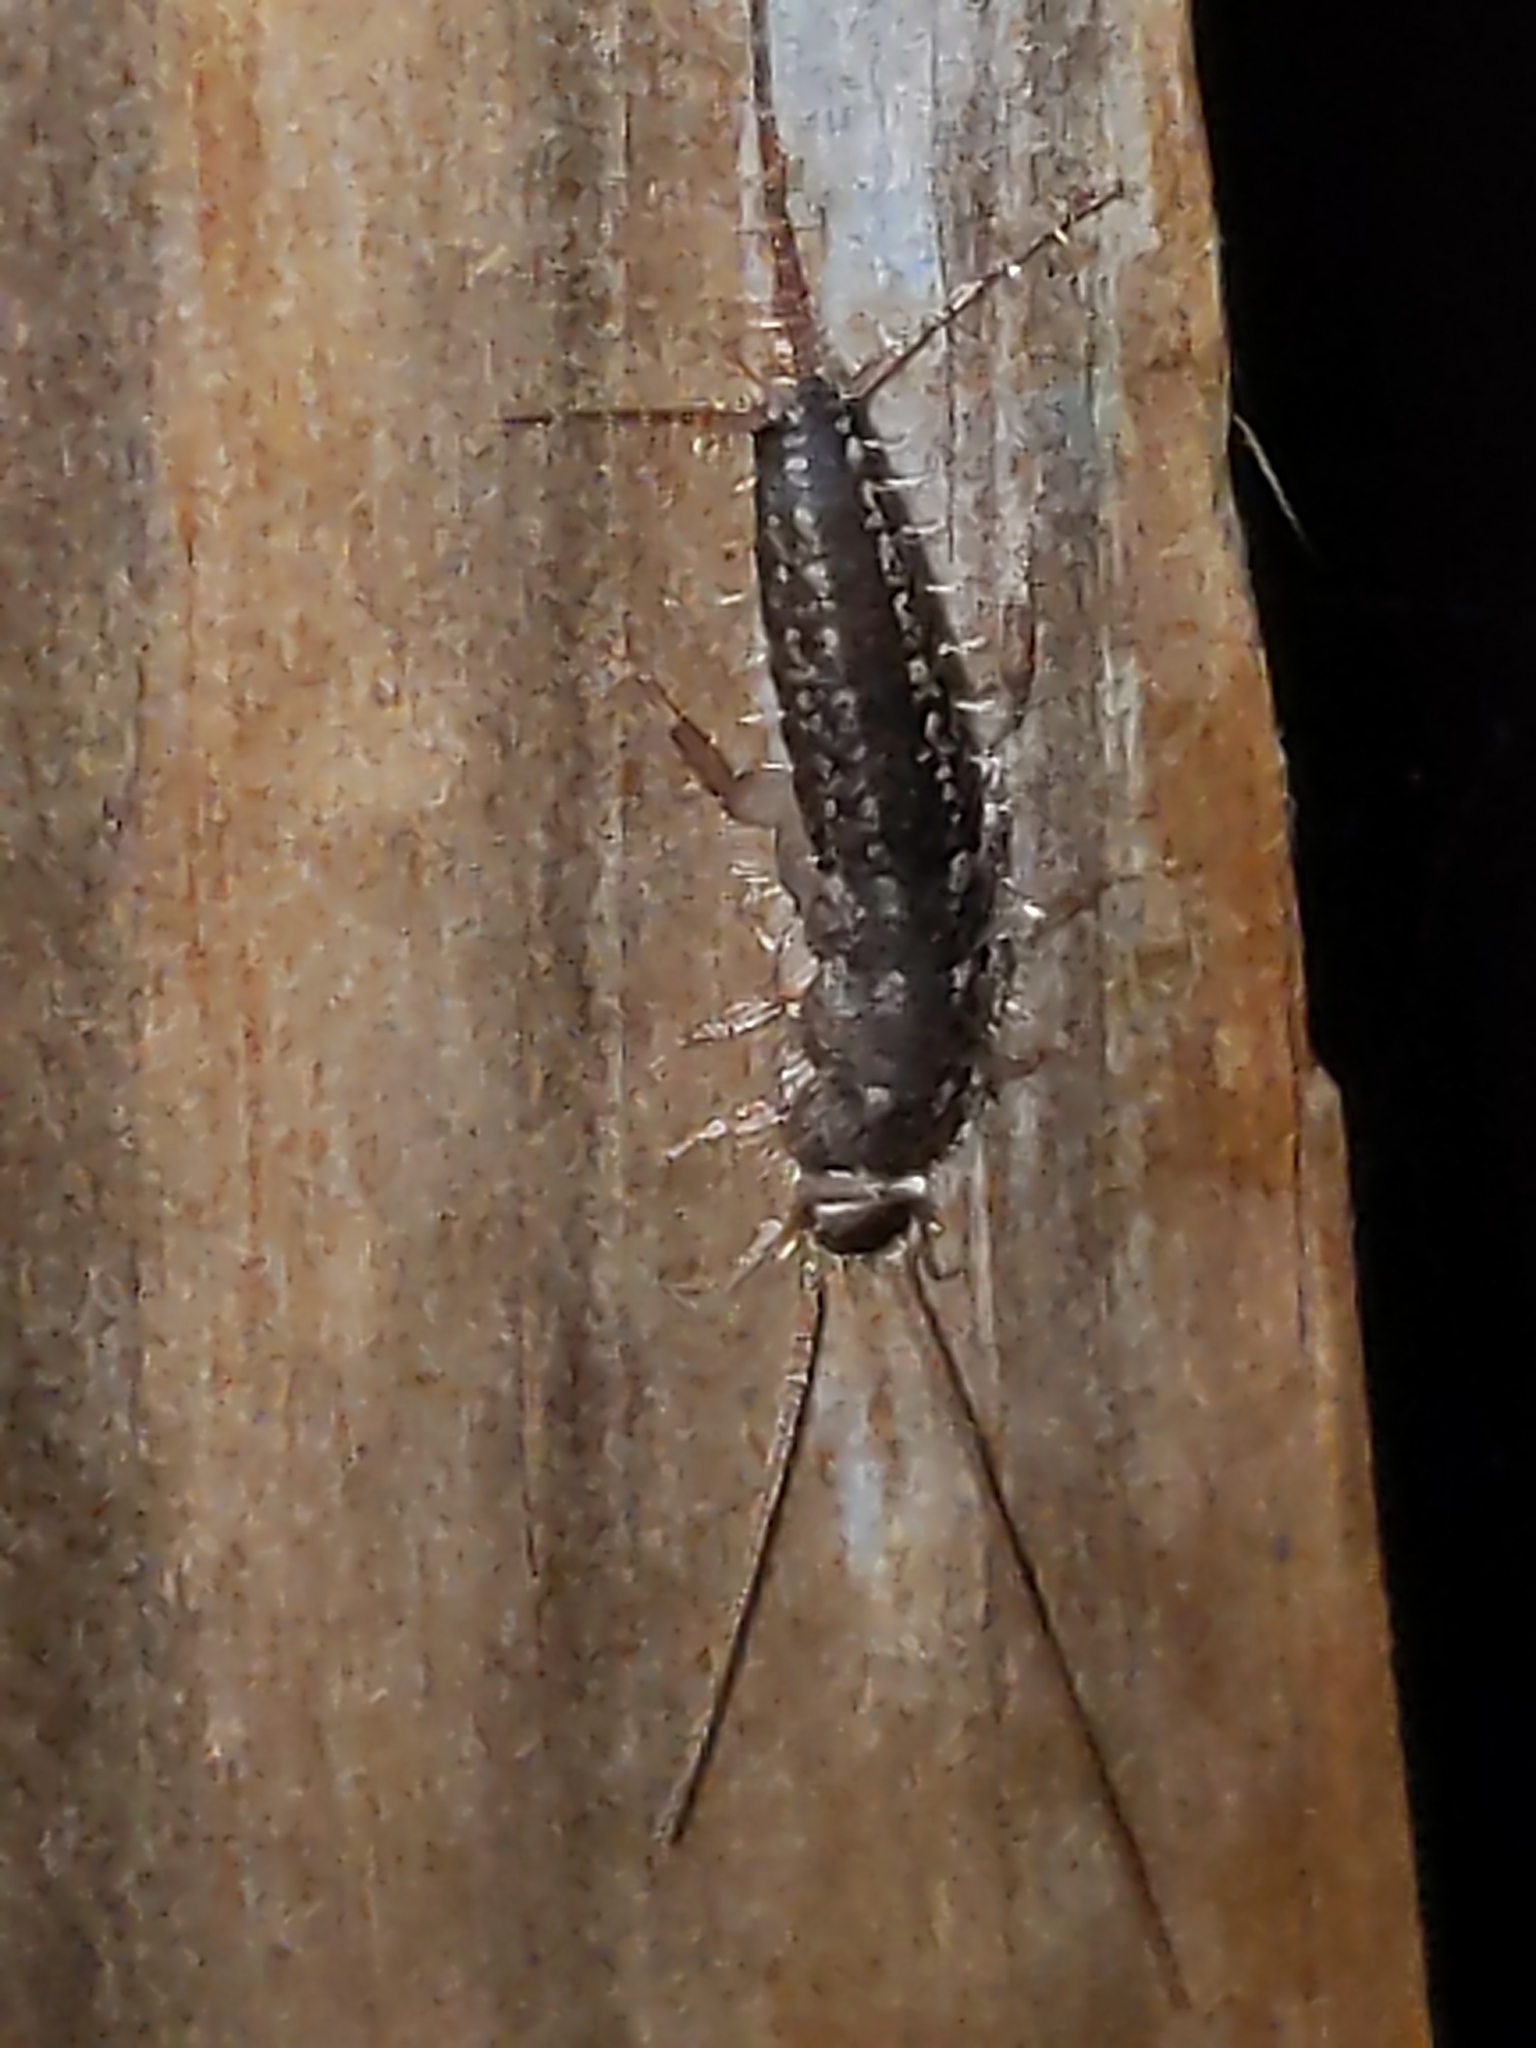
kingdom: Animalia
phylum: Arthropoda
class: Insecta
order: Zygentoma
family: Lepismatidae
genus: Ctenolepisma
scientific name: Ctenolepisma lineata
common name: Four-lined silverfish
